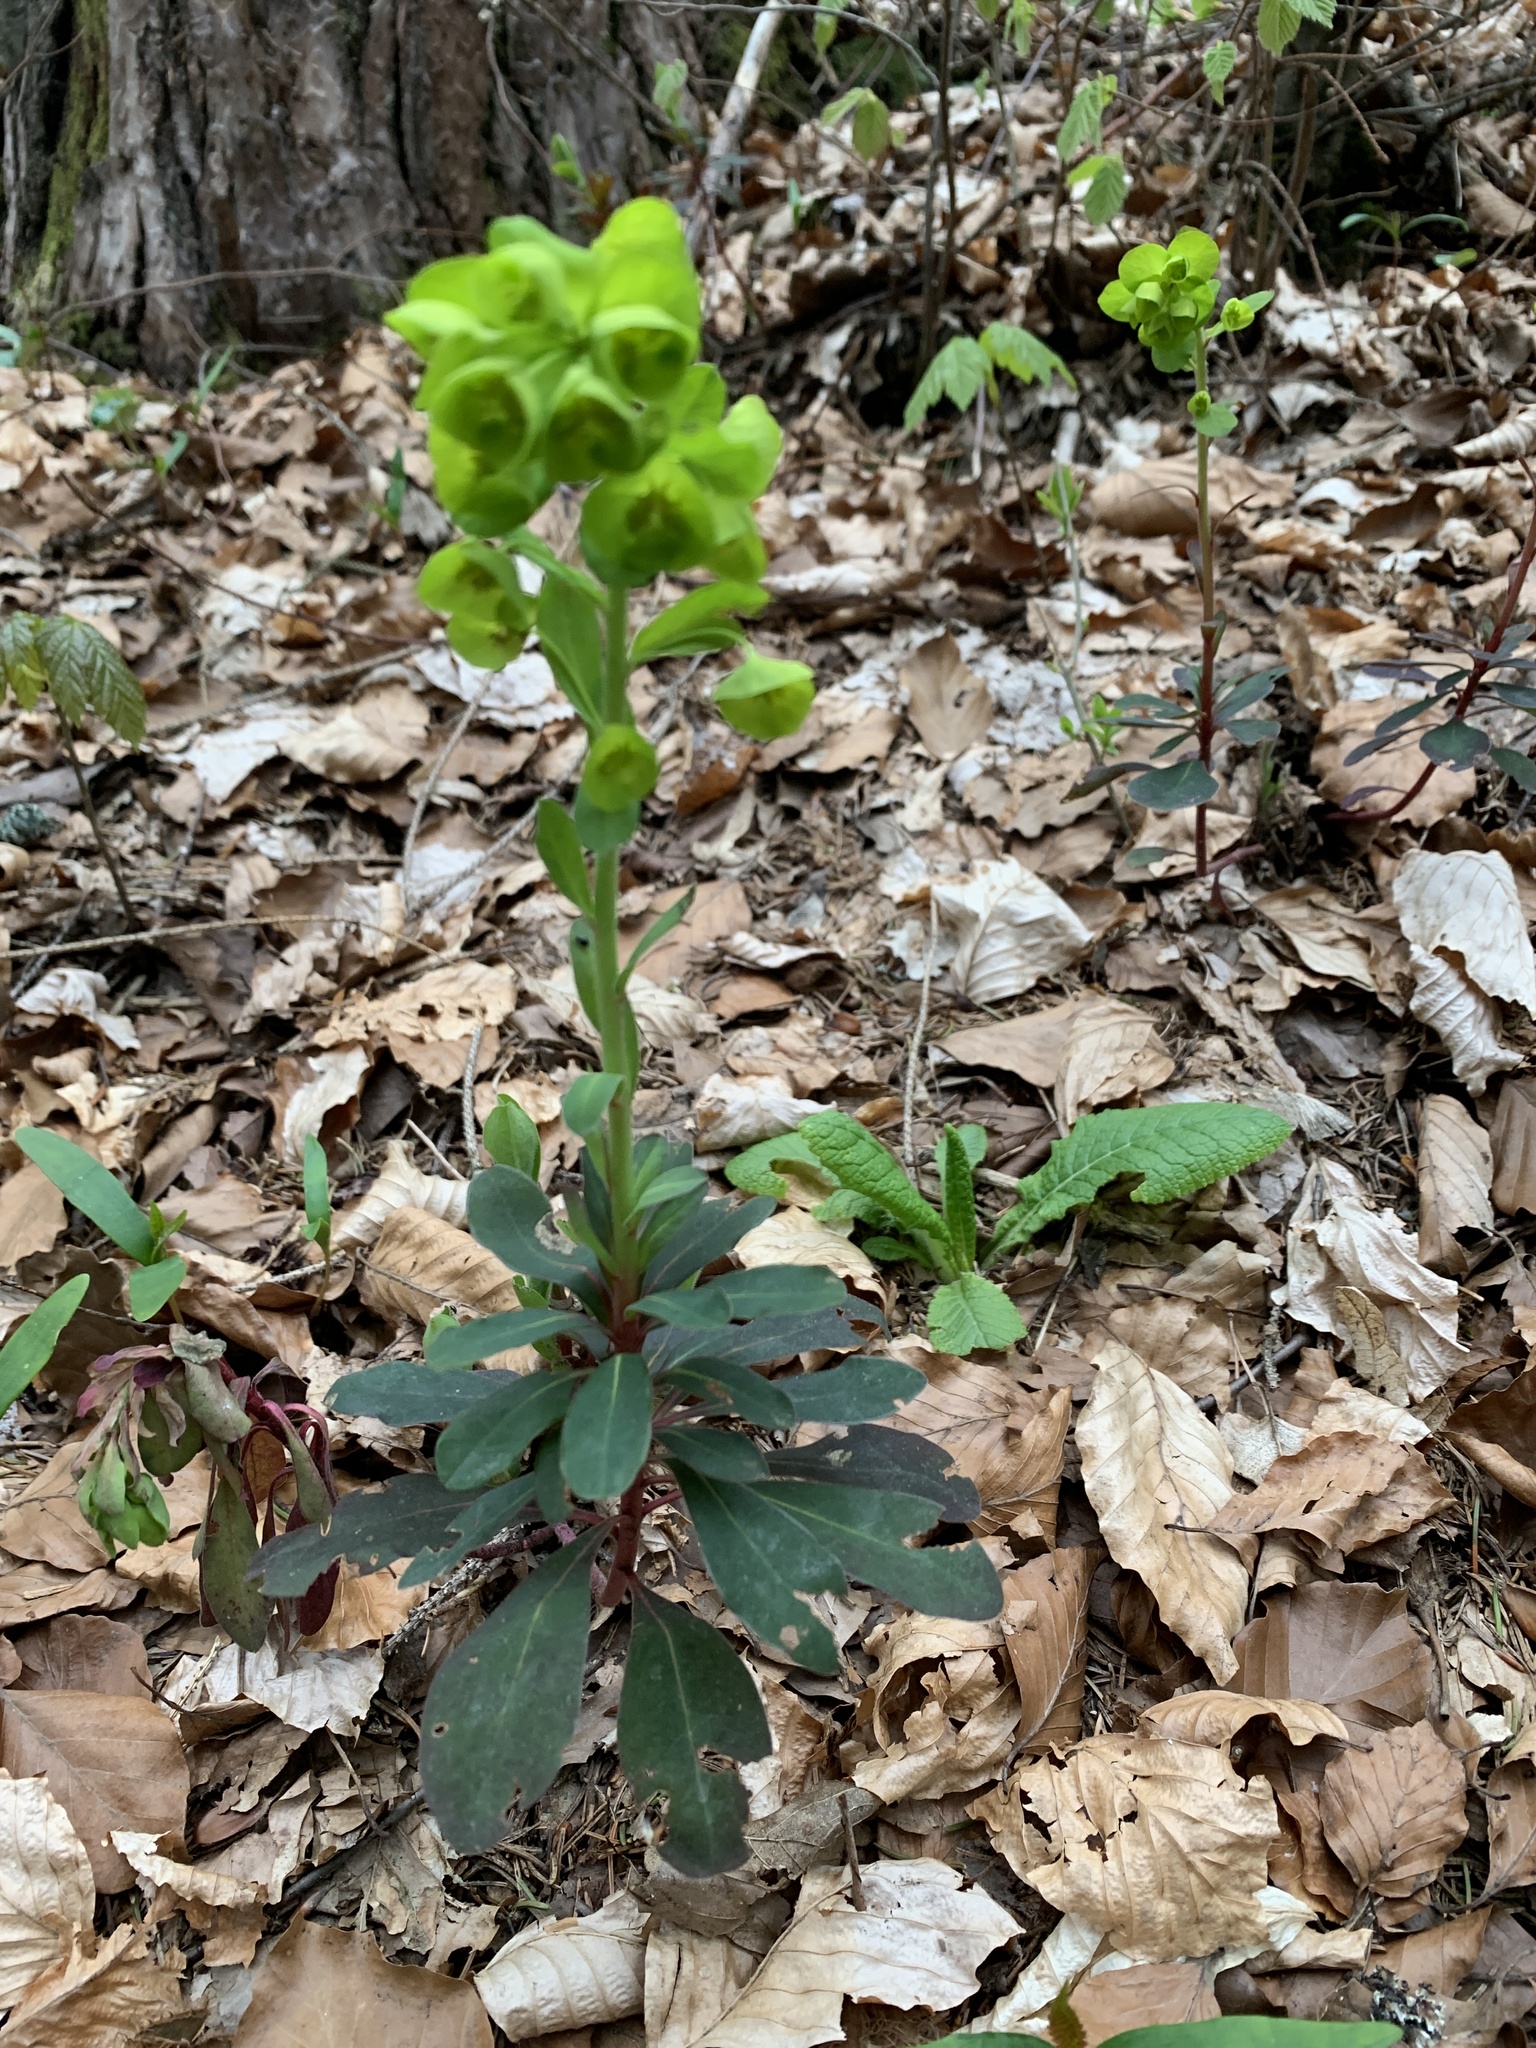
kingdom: Plantae
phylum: Tracheophyta
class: Magnoliopsida
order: Malpighiales
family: Euphorbiaceae
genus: Euphorbia
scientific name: Euphorbia amygdaloides
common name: Wood spurge
